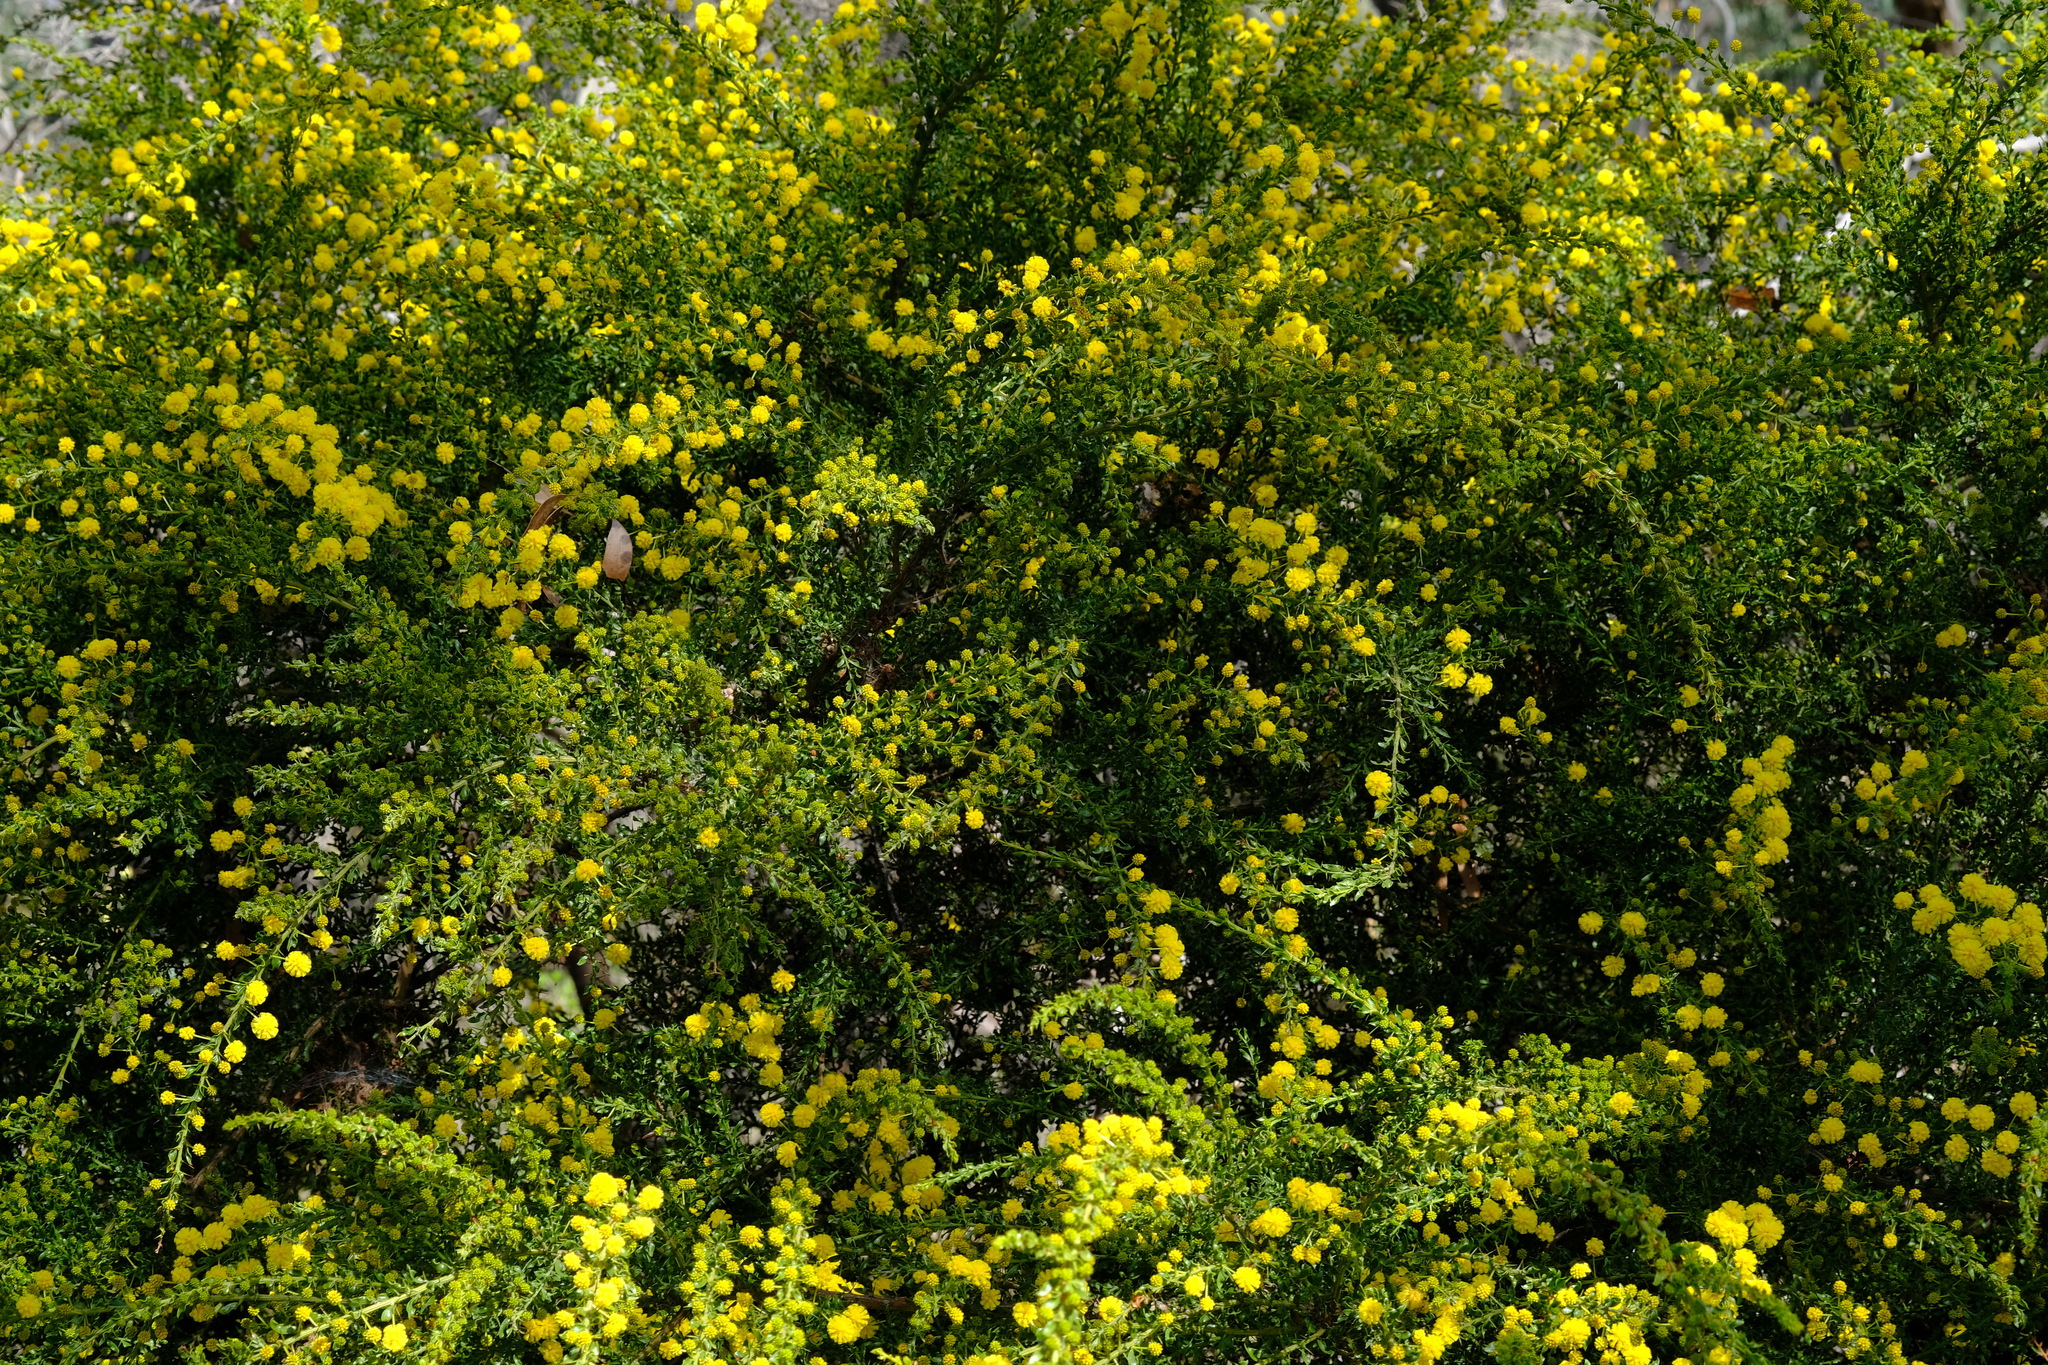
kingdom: Plantae
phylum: Tracheophyta
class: Magnoliopsida
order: Fabales
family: Fabaceae
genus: Acacia
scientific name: Acacia paradoxa
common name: Paradox acacia
